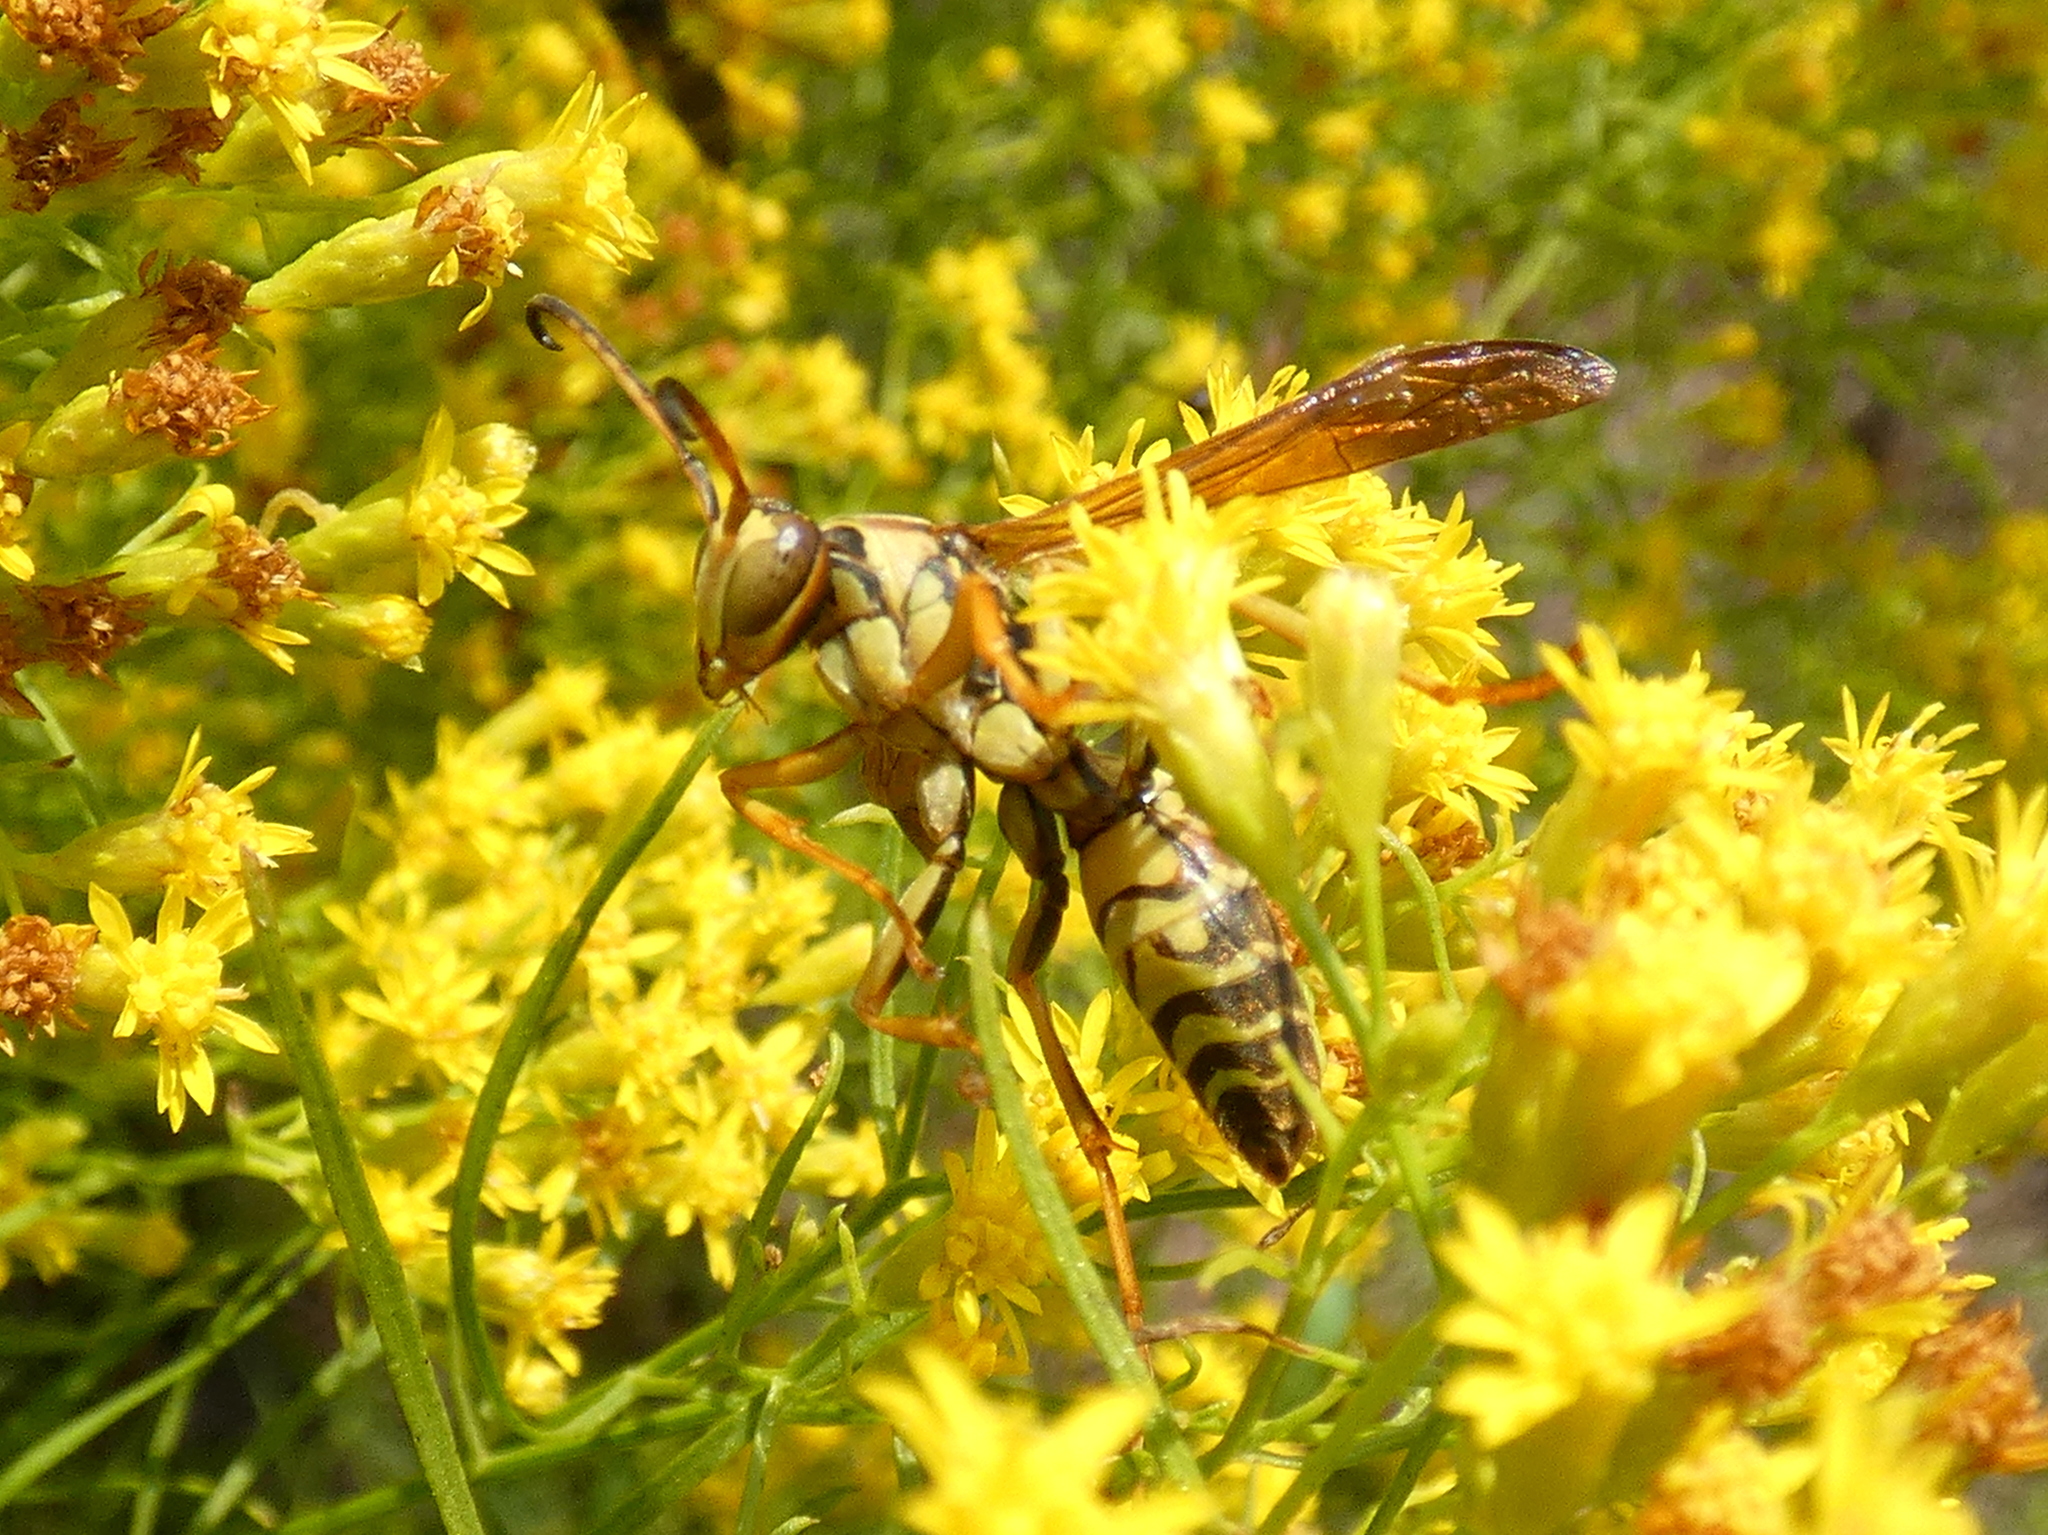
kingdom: Animalia
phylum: Arthropoda
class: Insecta
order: Hymenoptera
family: Eumenidae
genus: Polistes
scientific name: Polistes fuscatus
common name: Dark paper wasp
